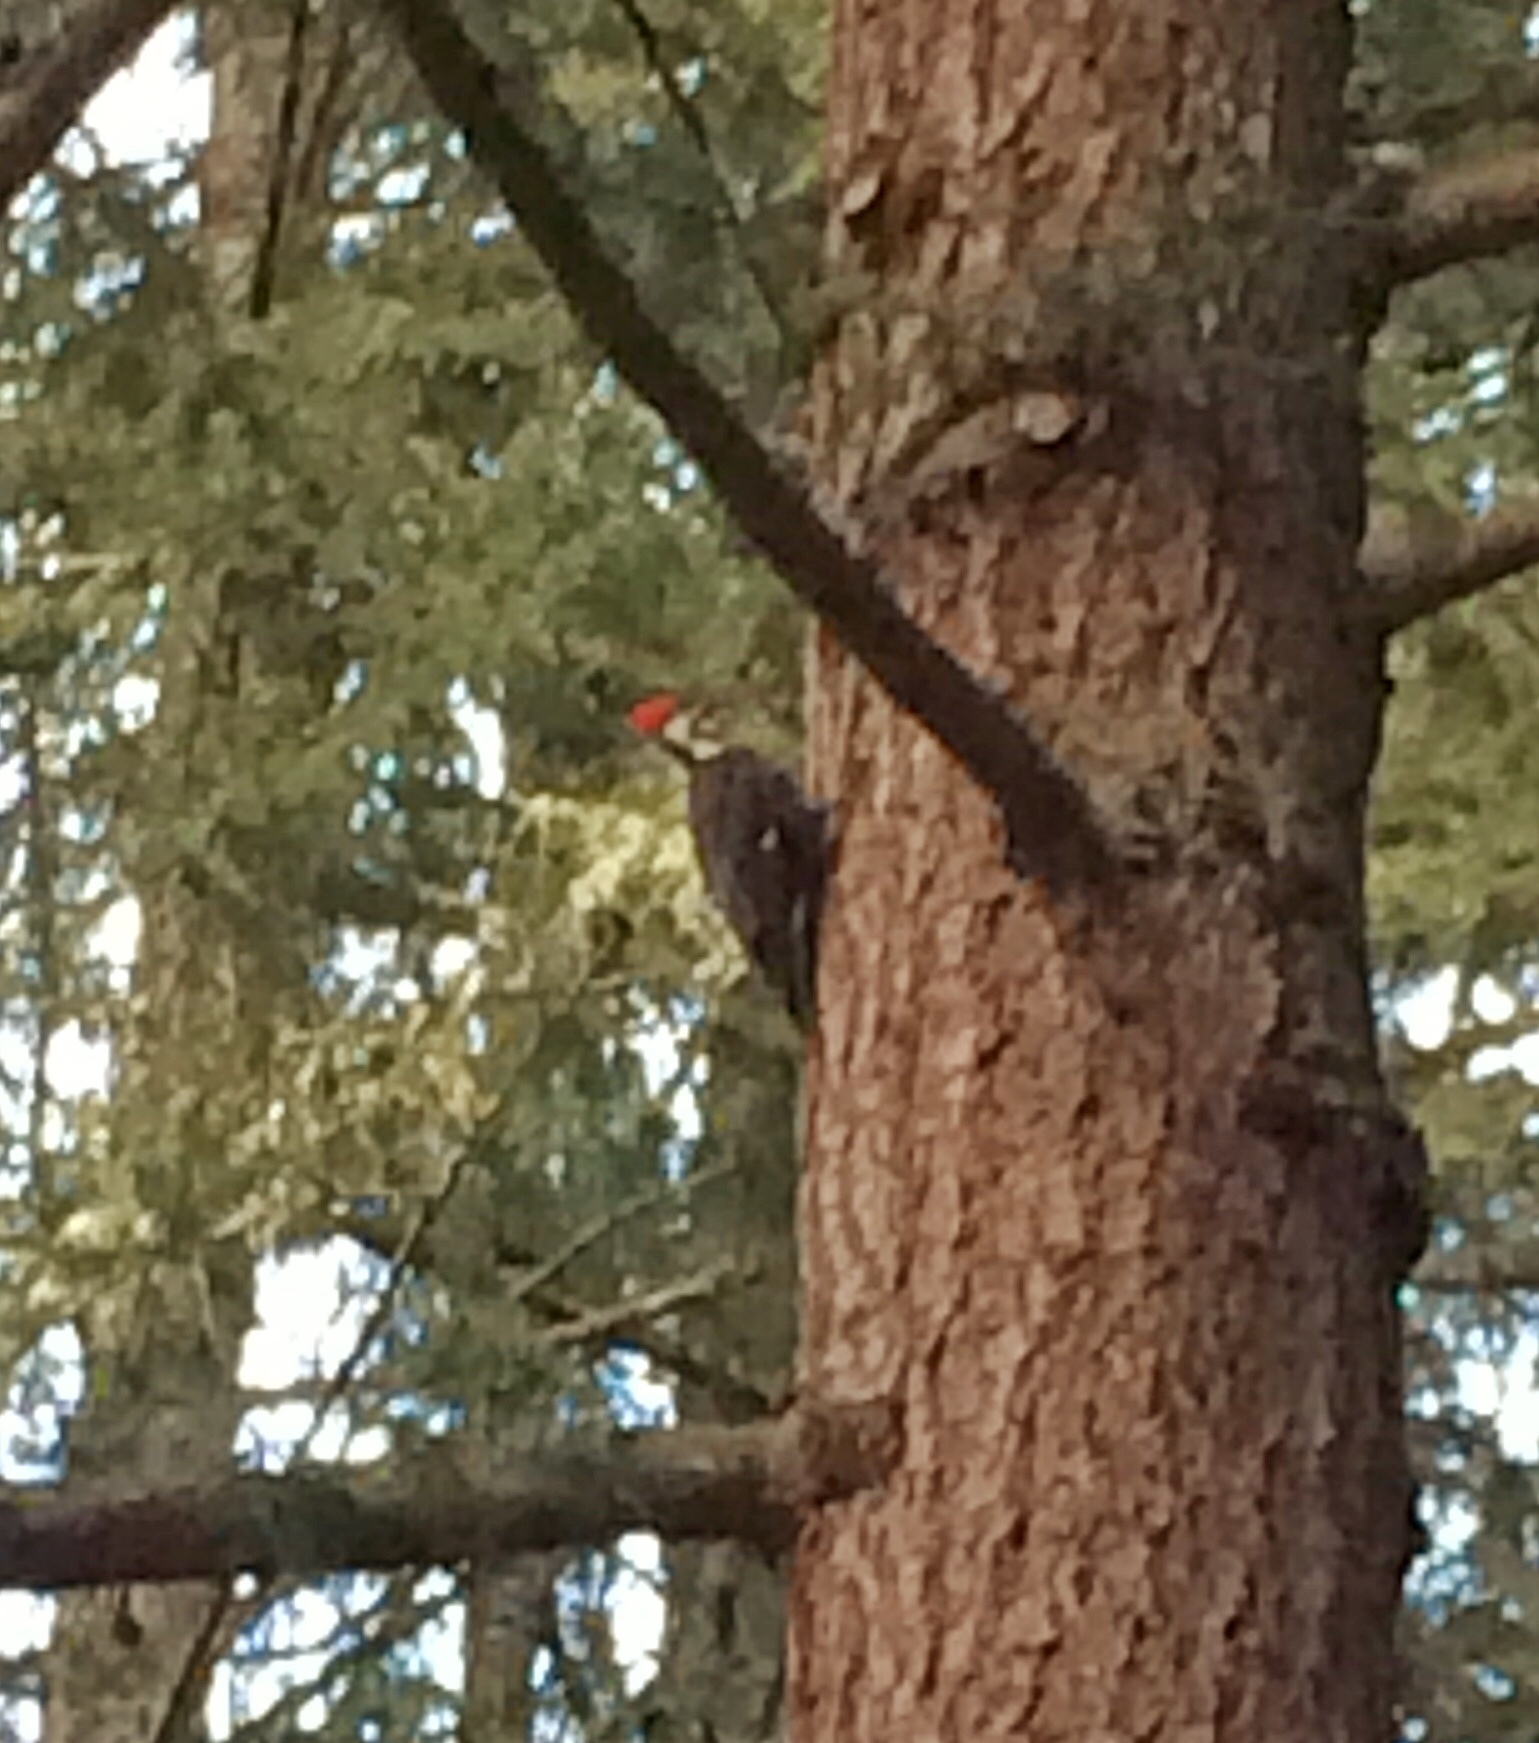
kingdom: Animalia
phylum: Chordata
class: Aves
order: Piciformes
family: Picidae
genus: Dryocopus
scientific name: Dryocopus pileatus
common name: Pileated woodpecker
